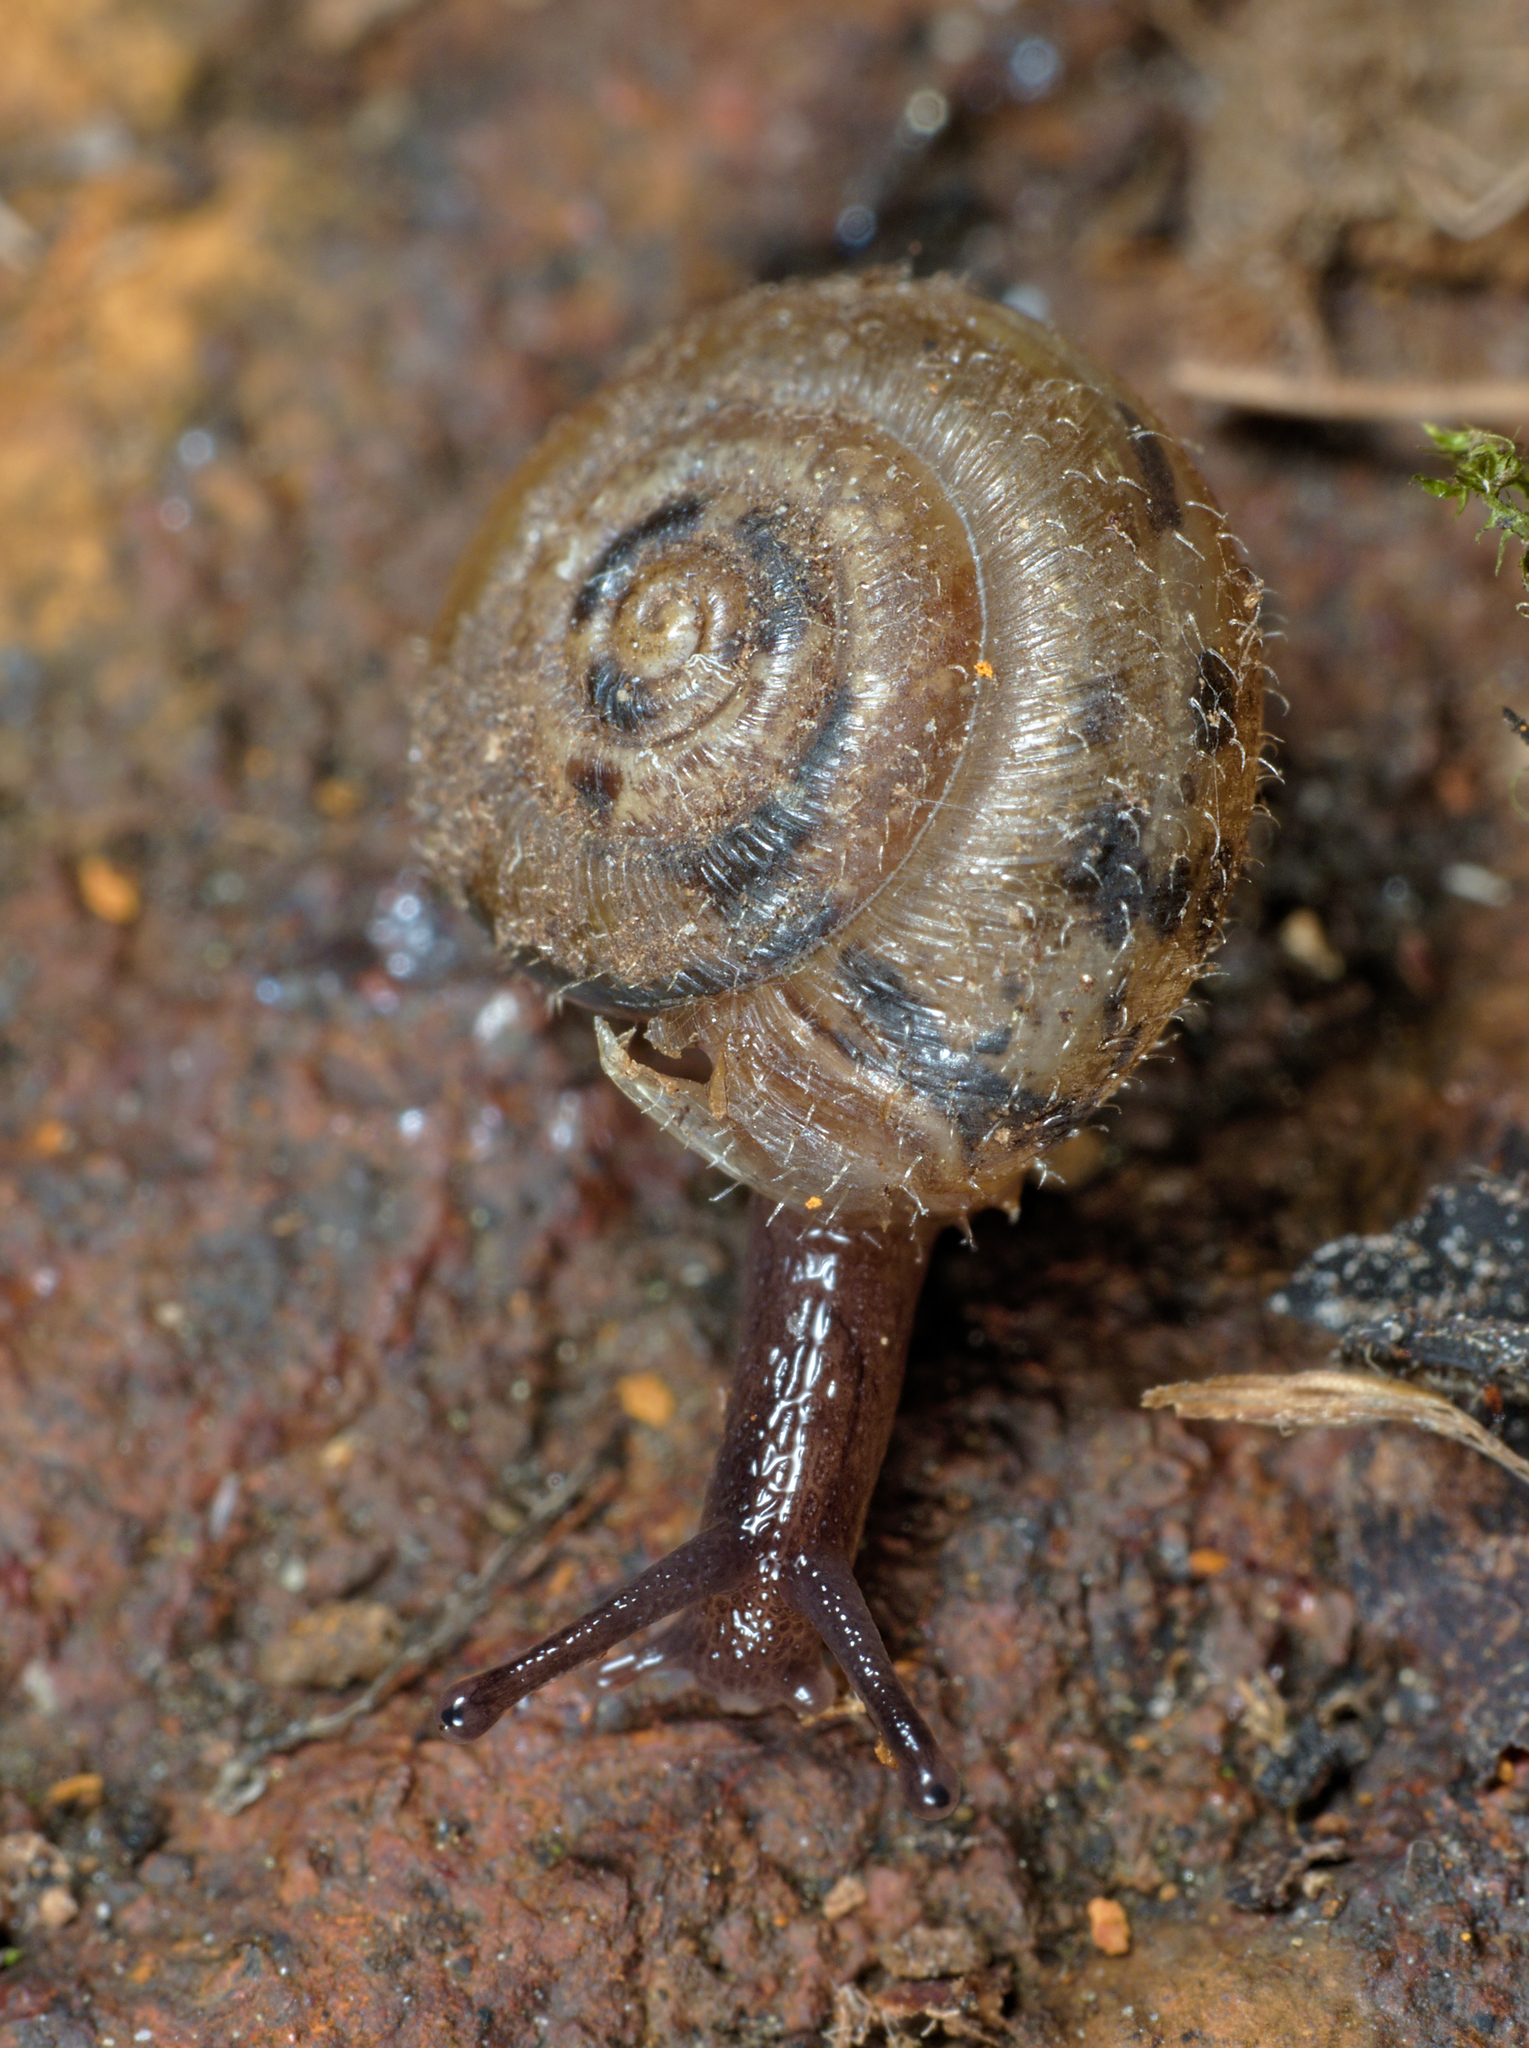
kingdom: Animalia
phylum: Mollusca
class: Gastropoda
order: Stylommatophora
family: Hygromiidae
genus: Trochulus
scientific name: Trochulus hispidus
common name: Hairy snail
